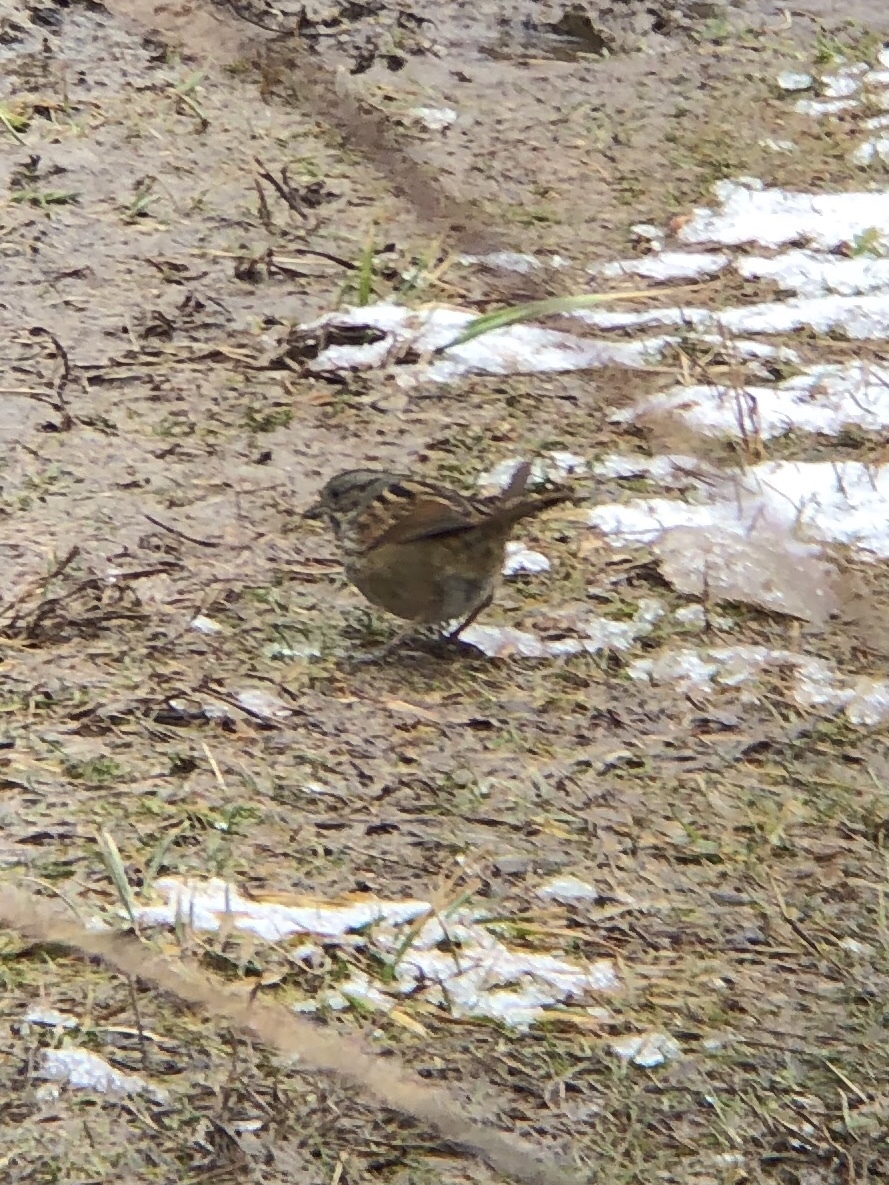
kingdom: Animalia
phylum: Chordata
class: Aves
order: Passeriformes
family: Passerellidae
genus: Melospiza
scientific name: Melospiza georgiana
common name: Swamp sparrow
